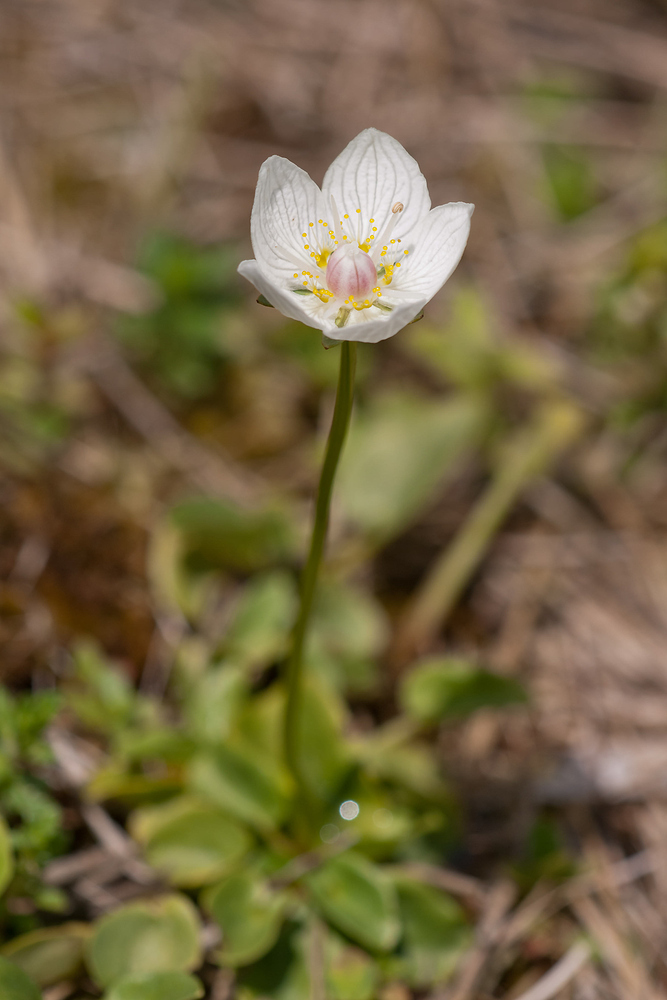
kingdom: Plantae
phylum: Tracheophyta
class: Magnoliopsida
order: Celastrales
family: Parnassiaceae
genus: Parnassia
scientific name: Parnassia palustris
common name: Grass-of-parnassus
